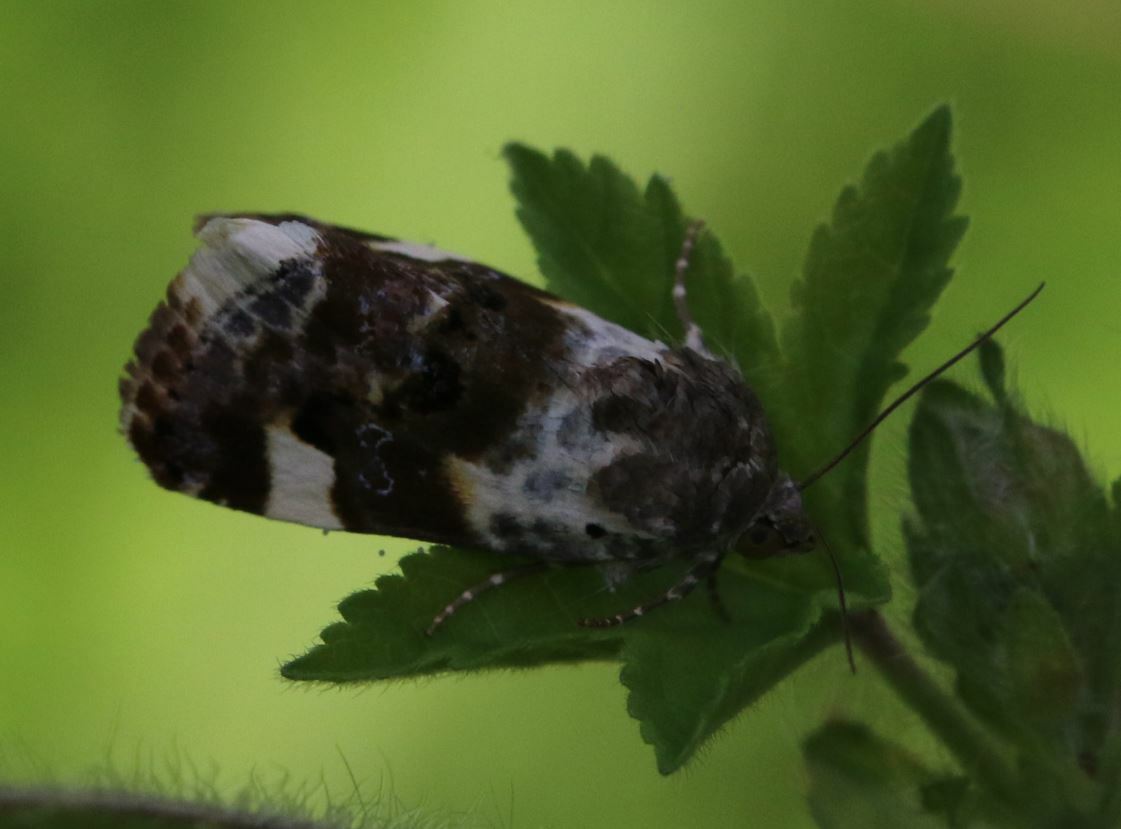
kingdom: Animalia
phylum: Arthropoda
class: Insecta
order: Lepidoptera
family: Noctuidae
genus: Acontia
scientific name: Acontia lucida
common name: Pale shoulder
